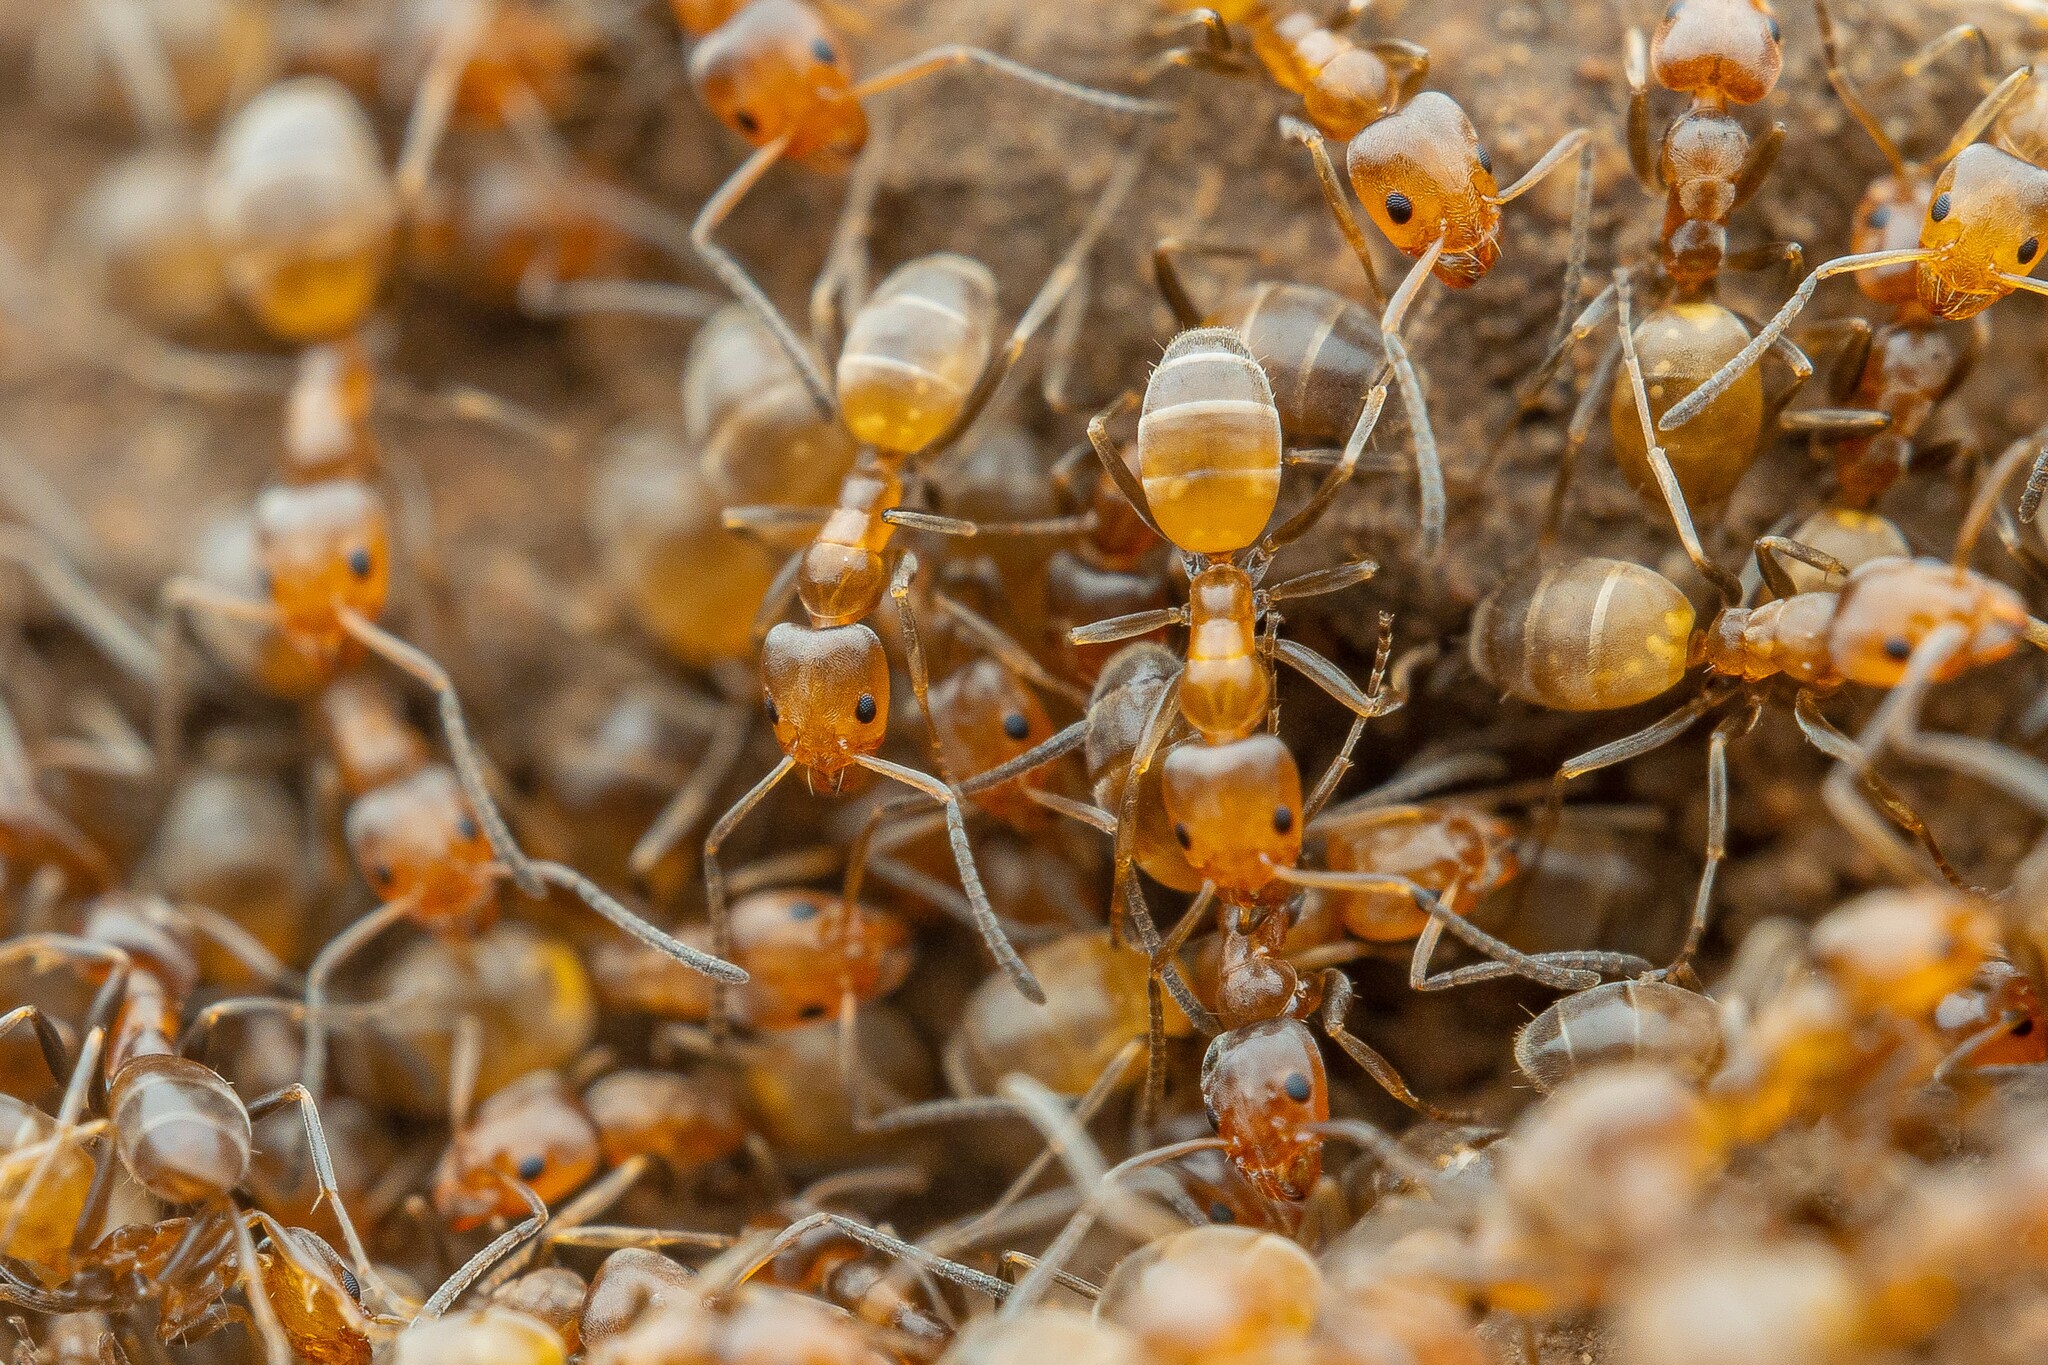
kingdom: Animalia
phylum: Arthropoda
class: Insecta
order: Hymenoptera
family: Formicidae
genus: Forelius
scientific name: Forelius pruinosus
